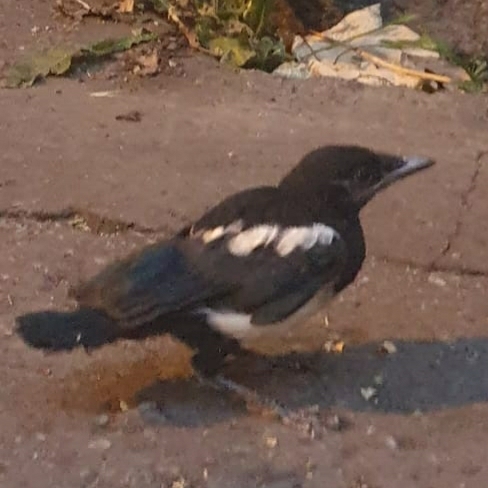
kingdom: Animalia
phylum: Chordata
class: Aves
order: Passeriformes
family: Corvidae
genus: Pica
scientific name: Pica pica
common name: Eurasian magpie
